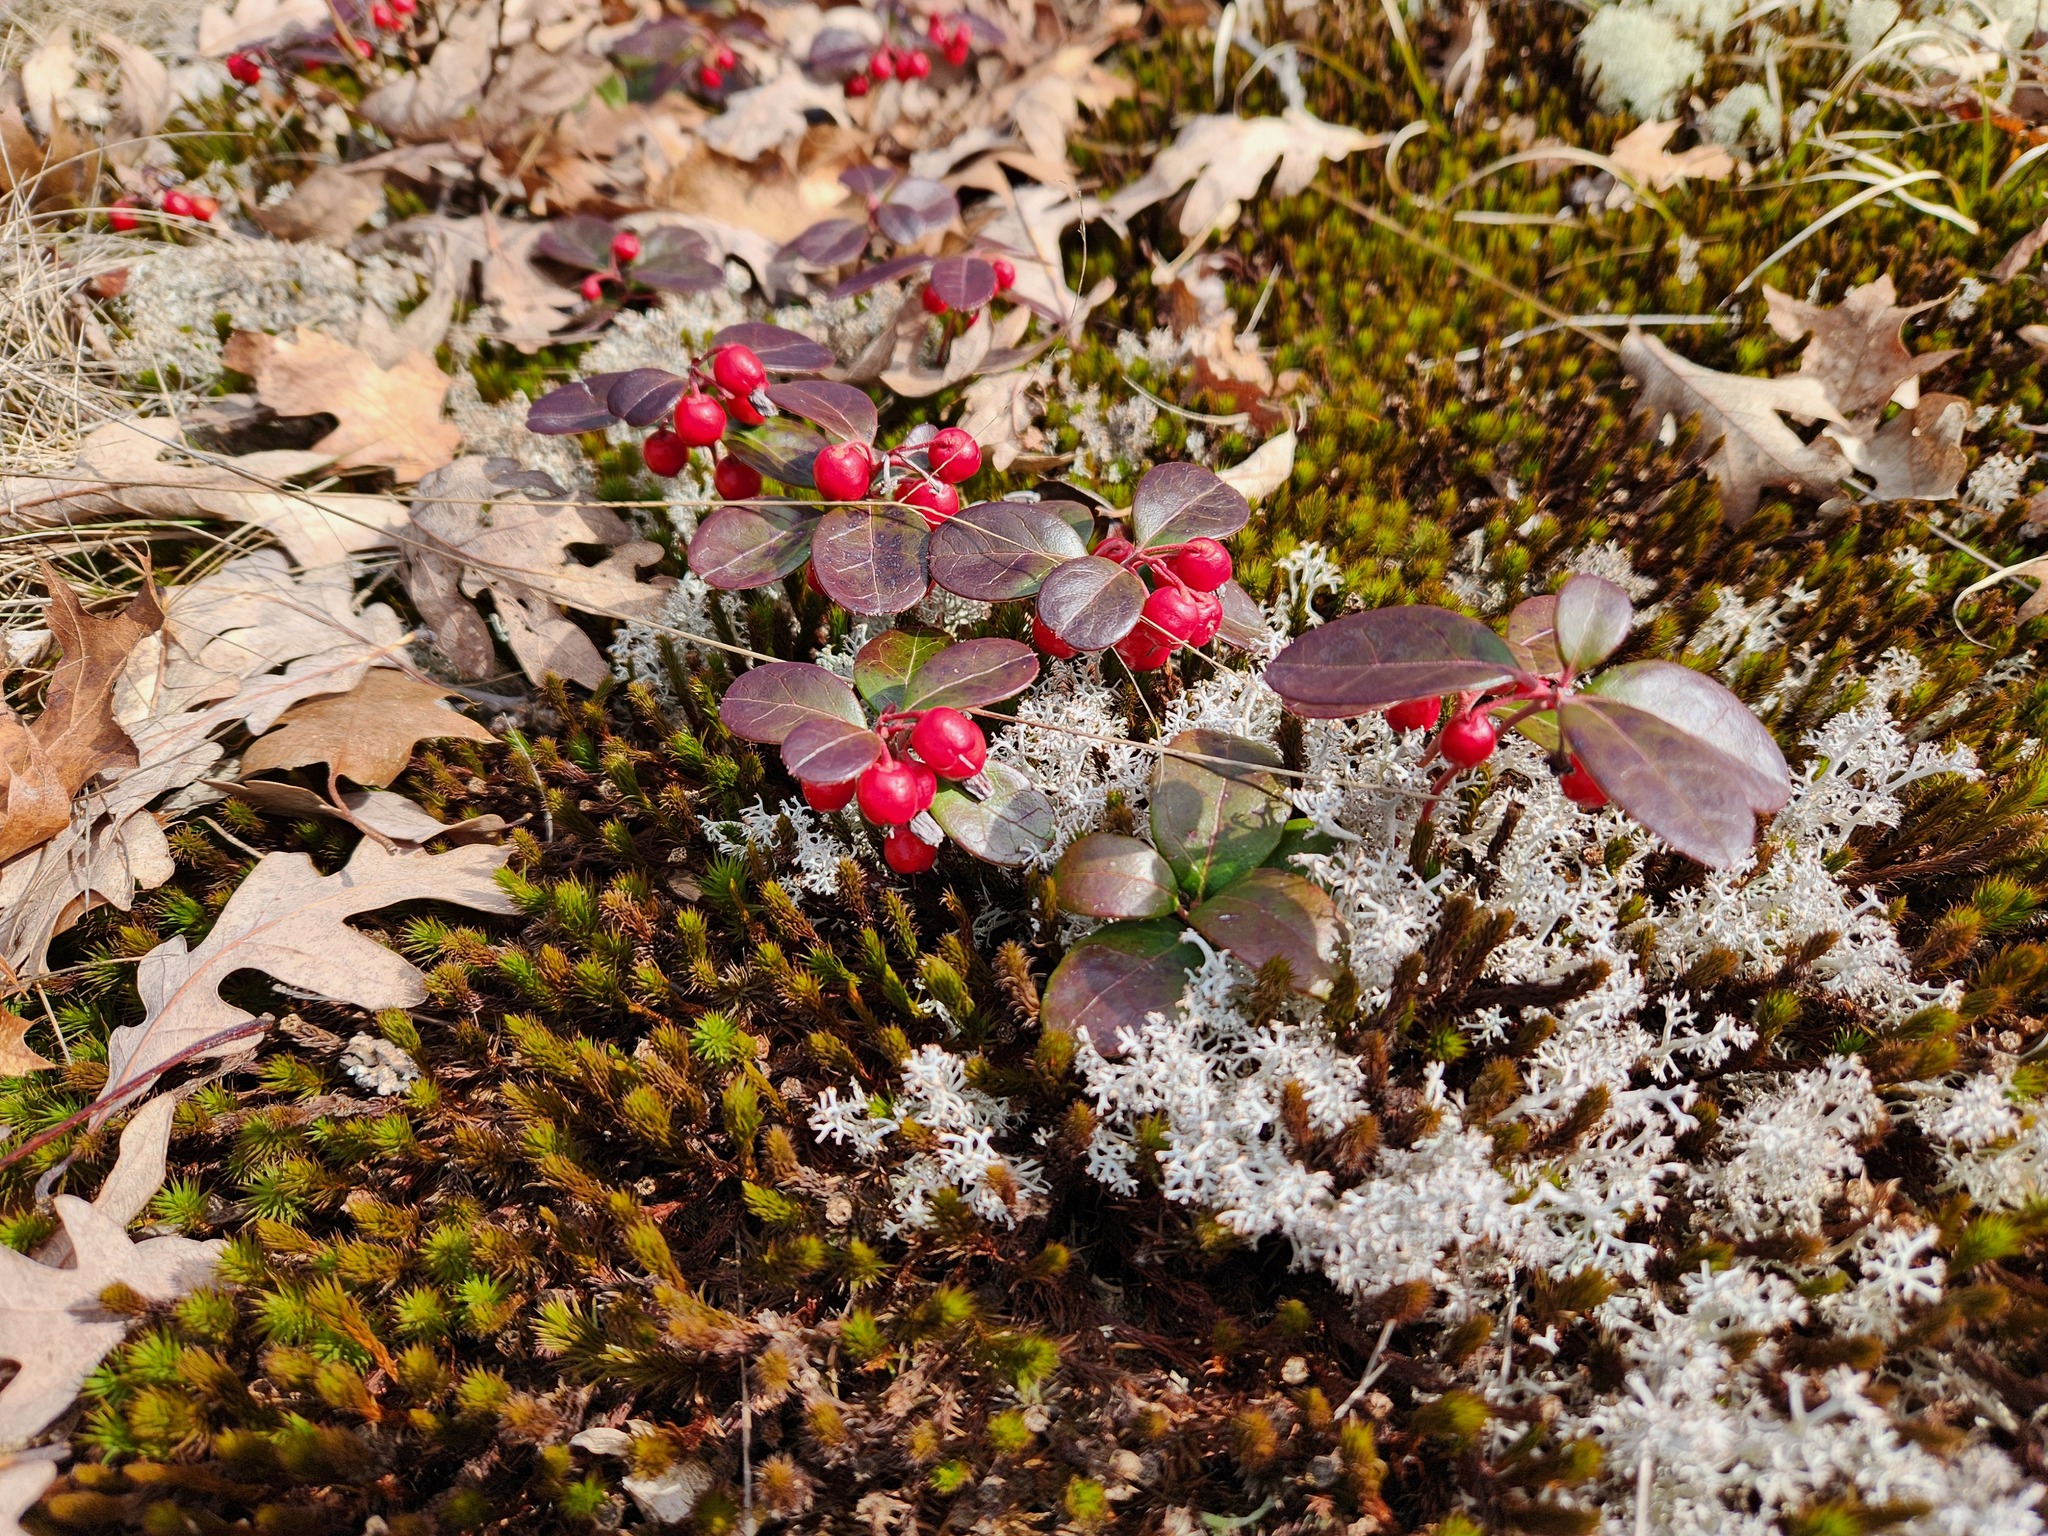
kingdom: Plantae
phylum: Tracheophyta
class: Magnoliopsida
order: Ericales
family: Ericaceae
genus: Gaultheria
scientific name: Gaultheria procumbens
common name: Checkerberry
